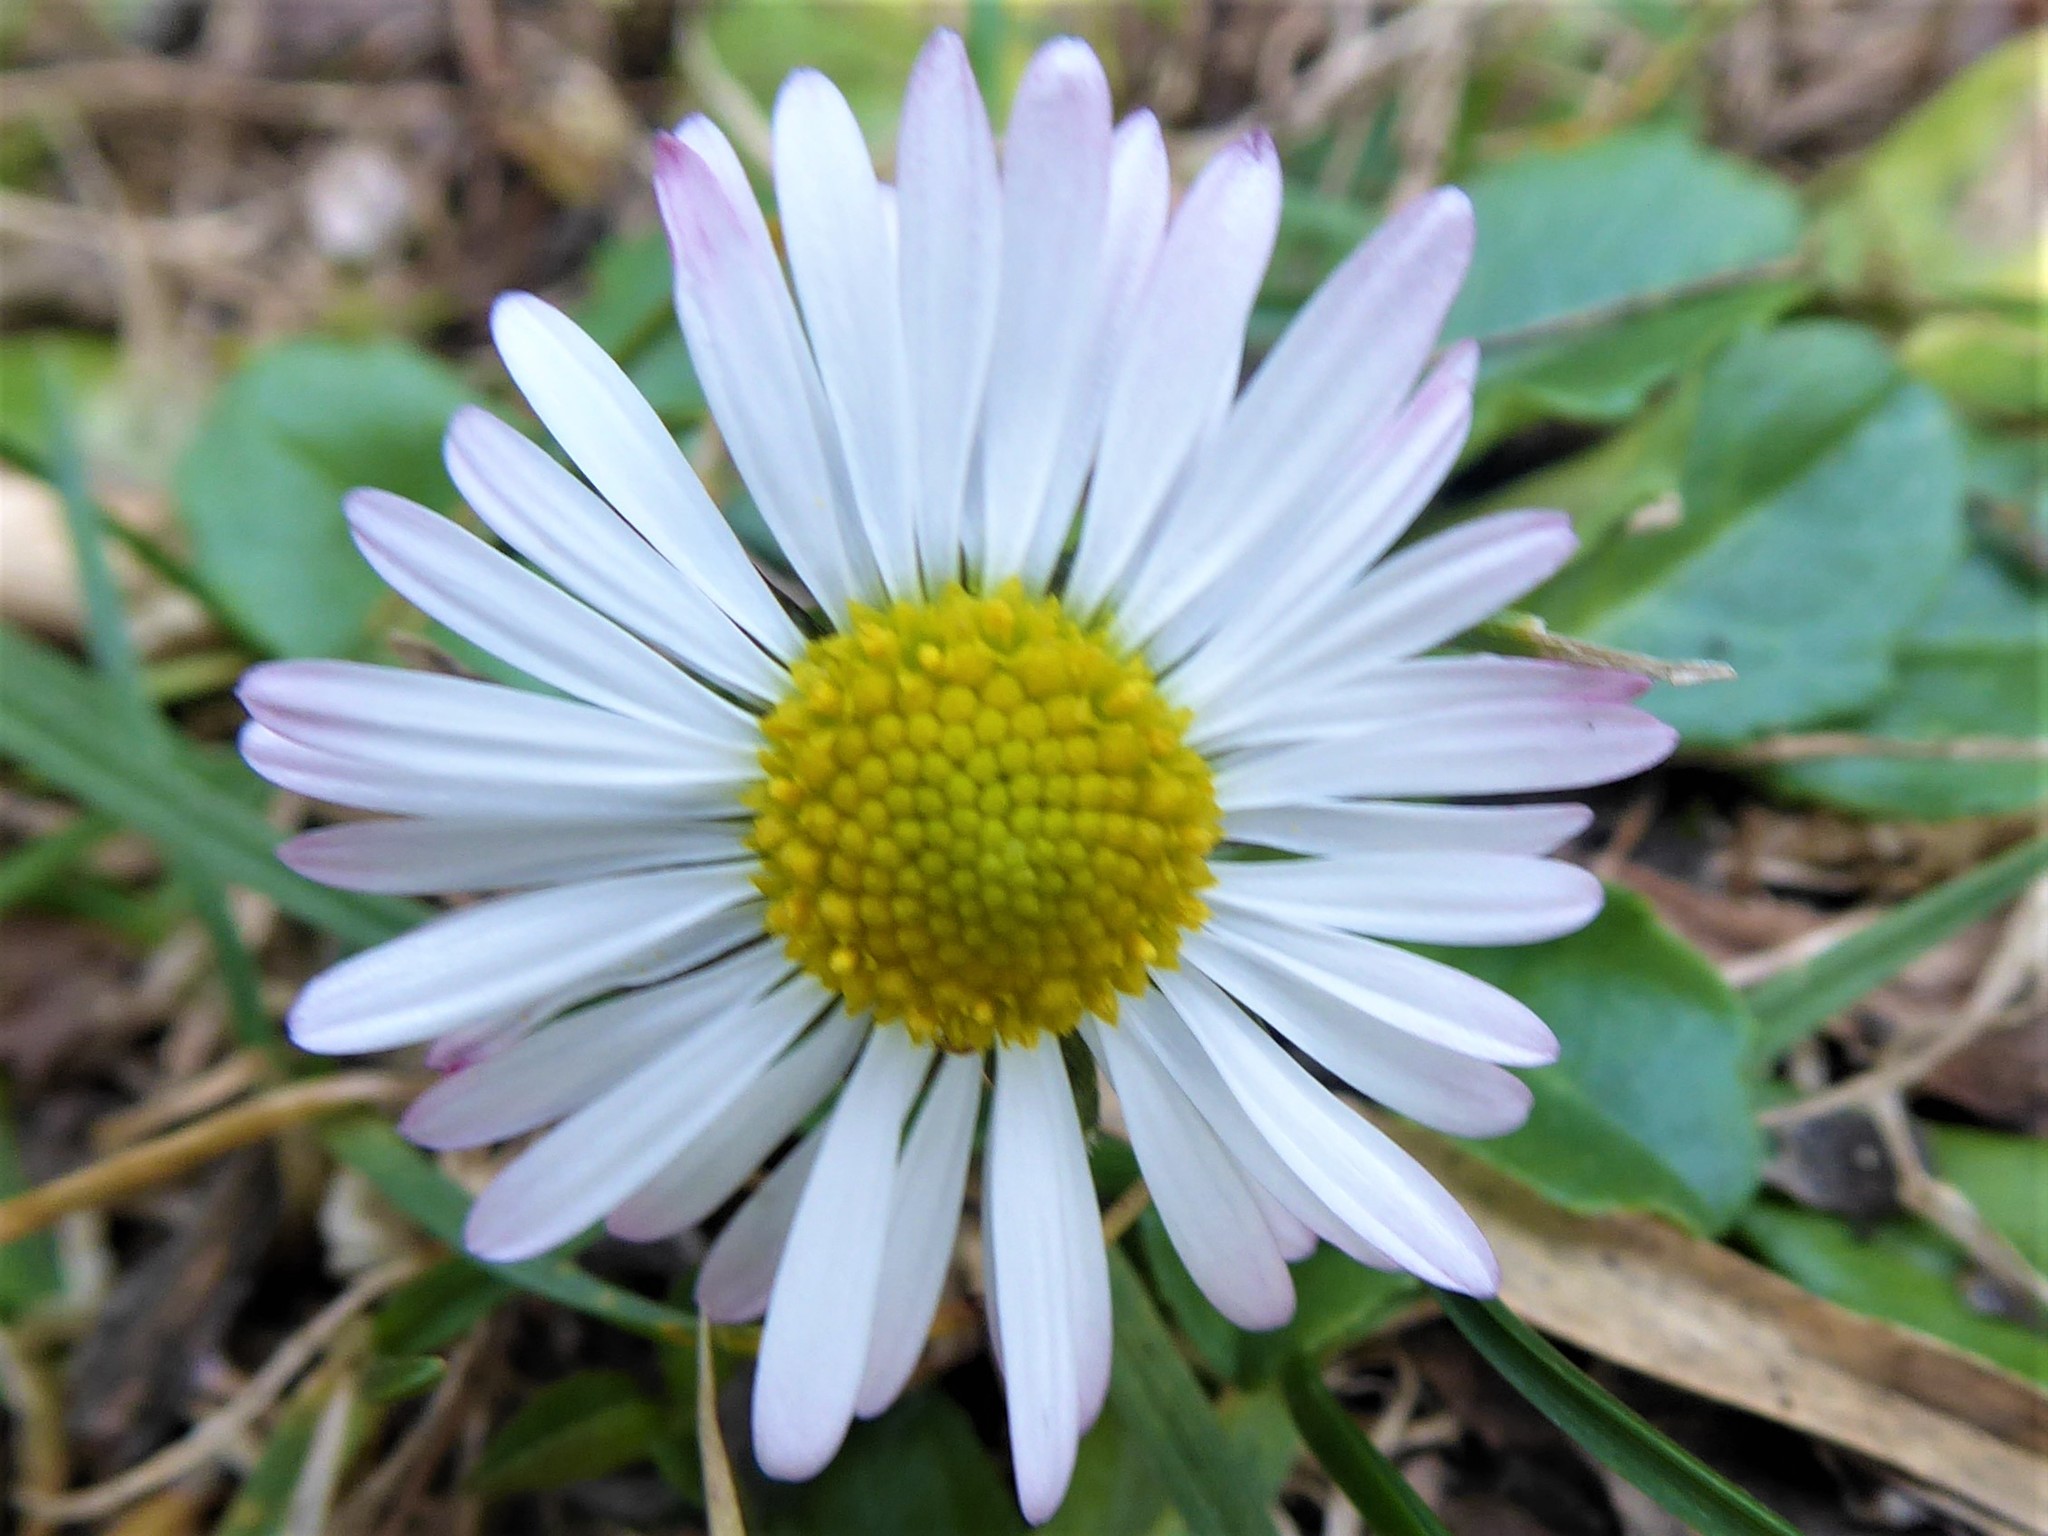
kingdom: Plantae
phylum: Tracheophyta
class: Magnoliopsida
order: Asterales
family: Asteraceae
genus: Bellis
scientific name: Bellis perennis
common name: Lawndaisy
